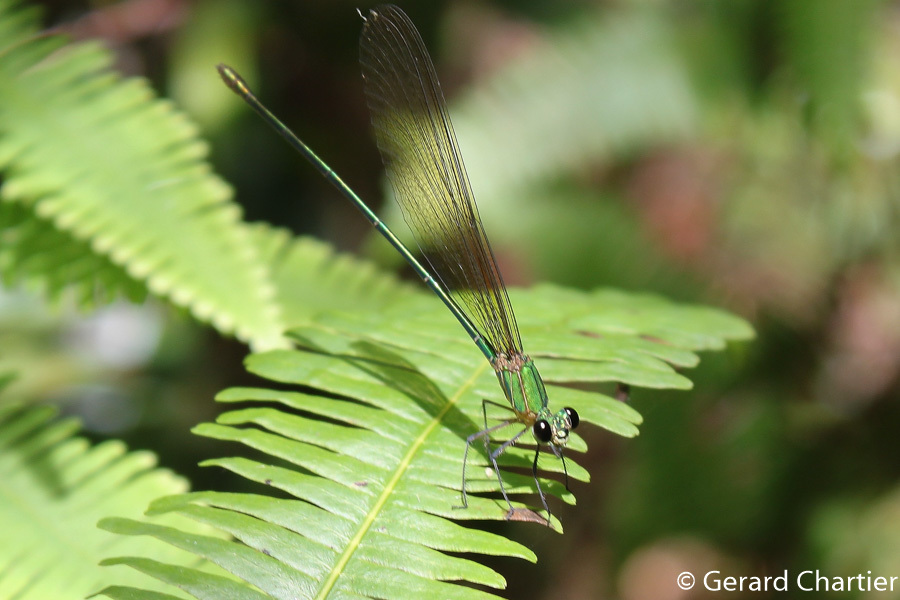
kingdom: Animalia
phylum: Arthropoda
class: Insecta
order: Odonata
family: Calopterygidae
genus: Vestalis
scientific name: Vestalis gracilis
